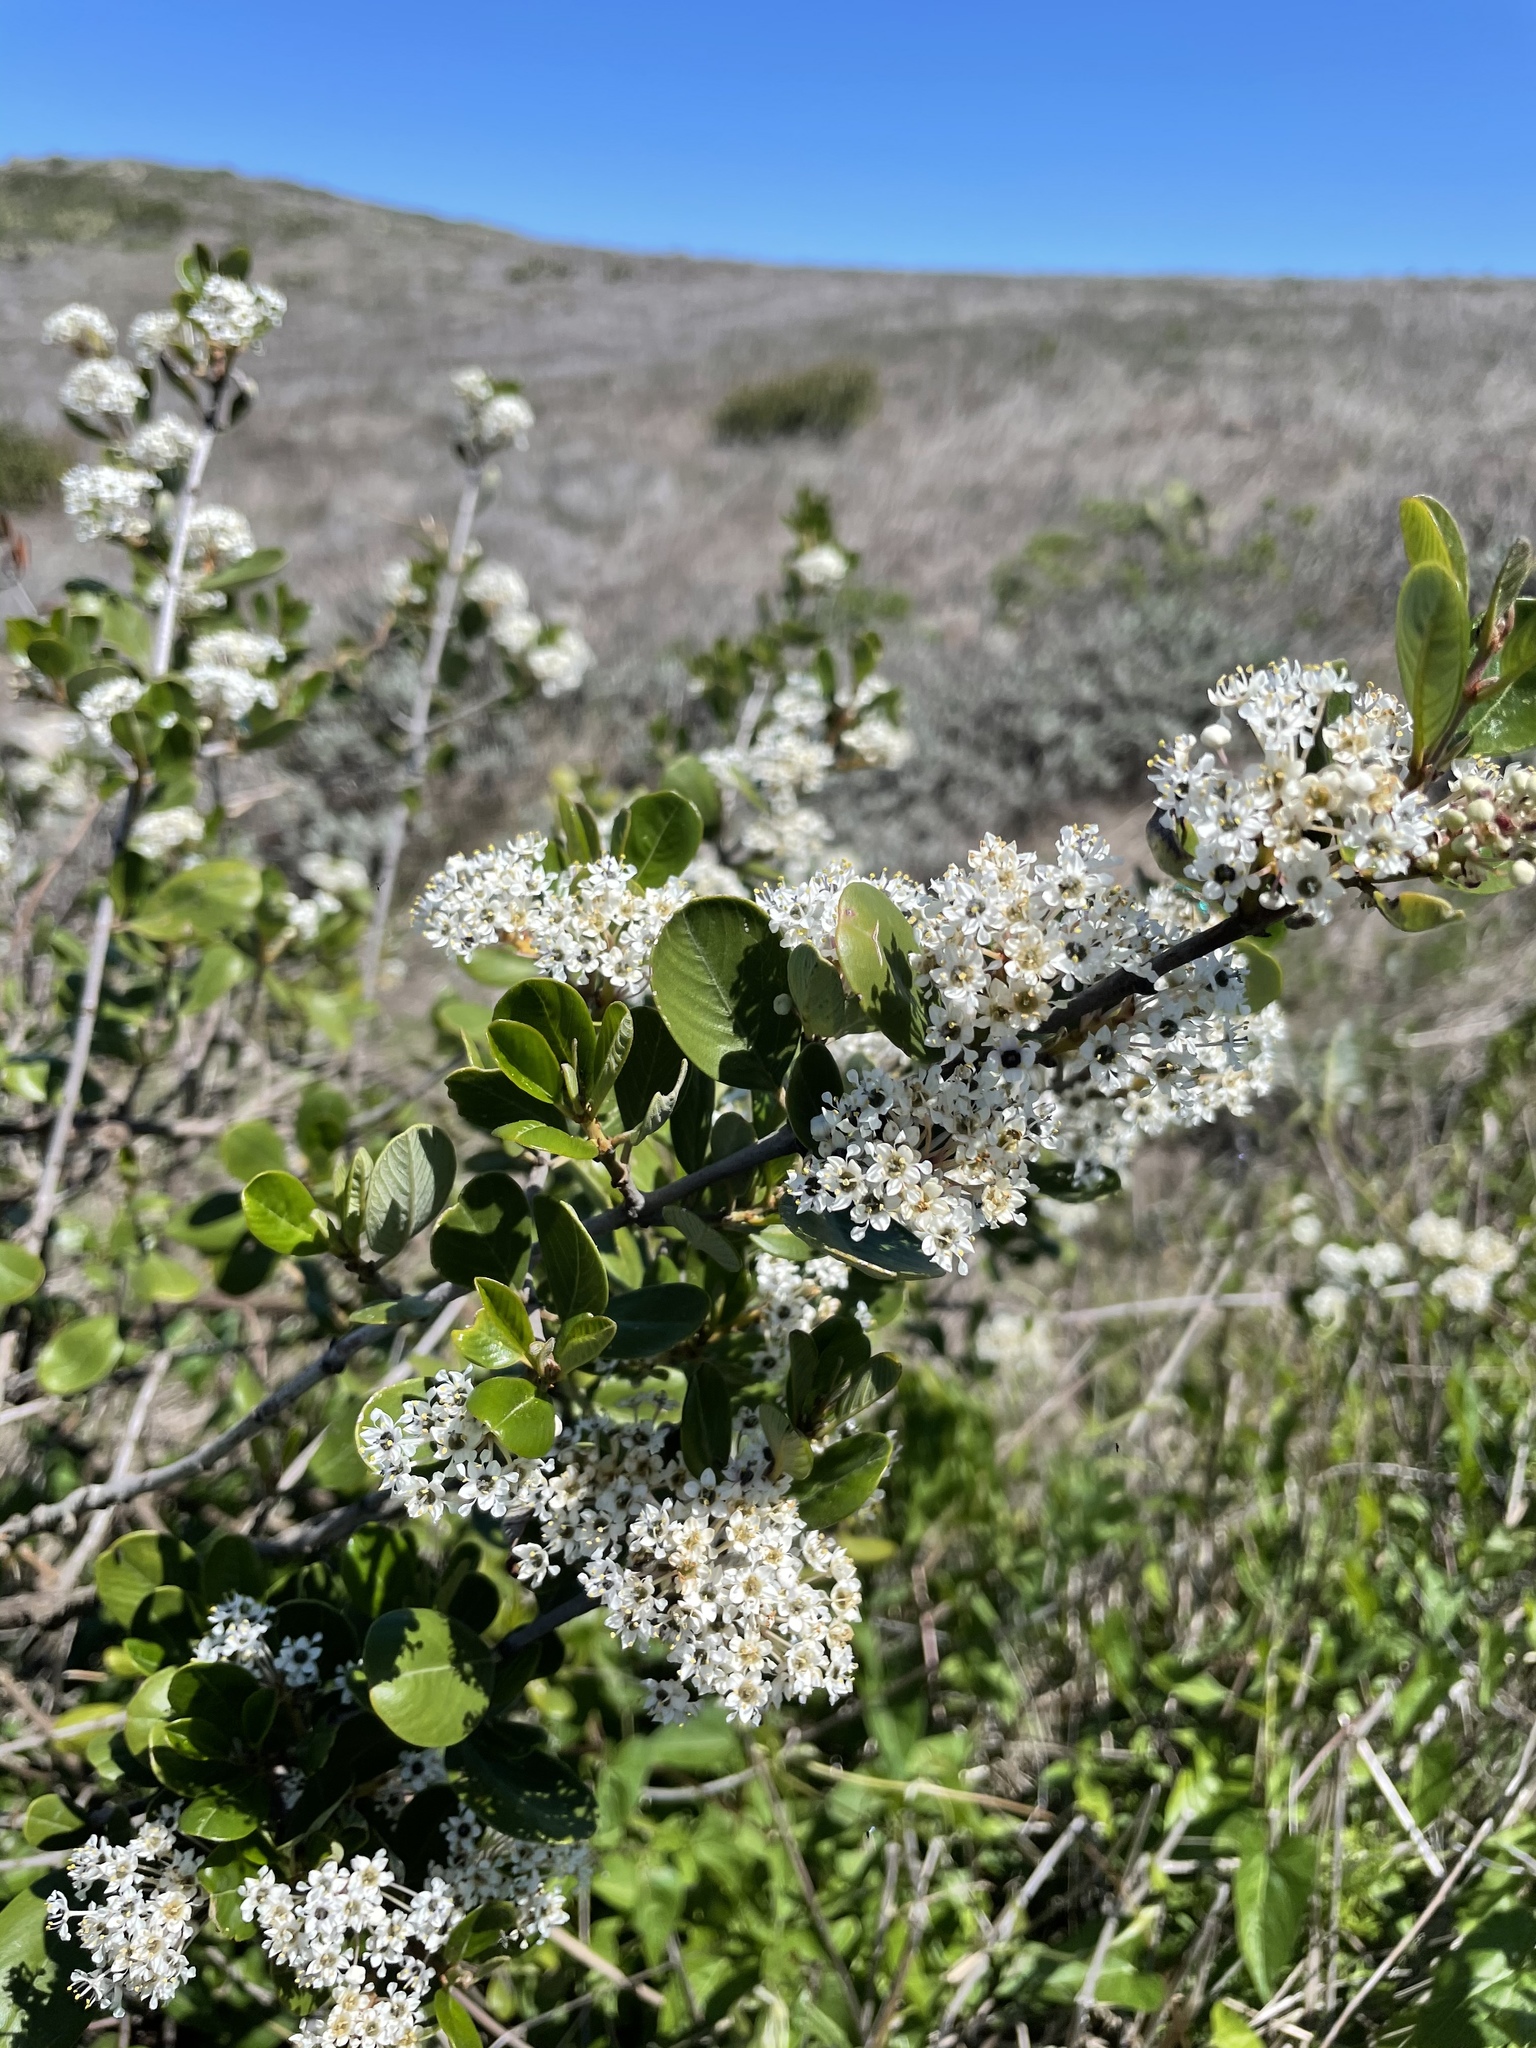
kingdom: Plantae
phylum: Tracheophyta
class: Magnoliopsida
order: Rosales
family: Rhamnaceae
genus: Ceanothus
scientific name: Ceanothus megacarpus
